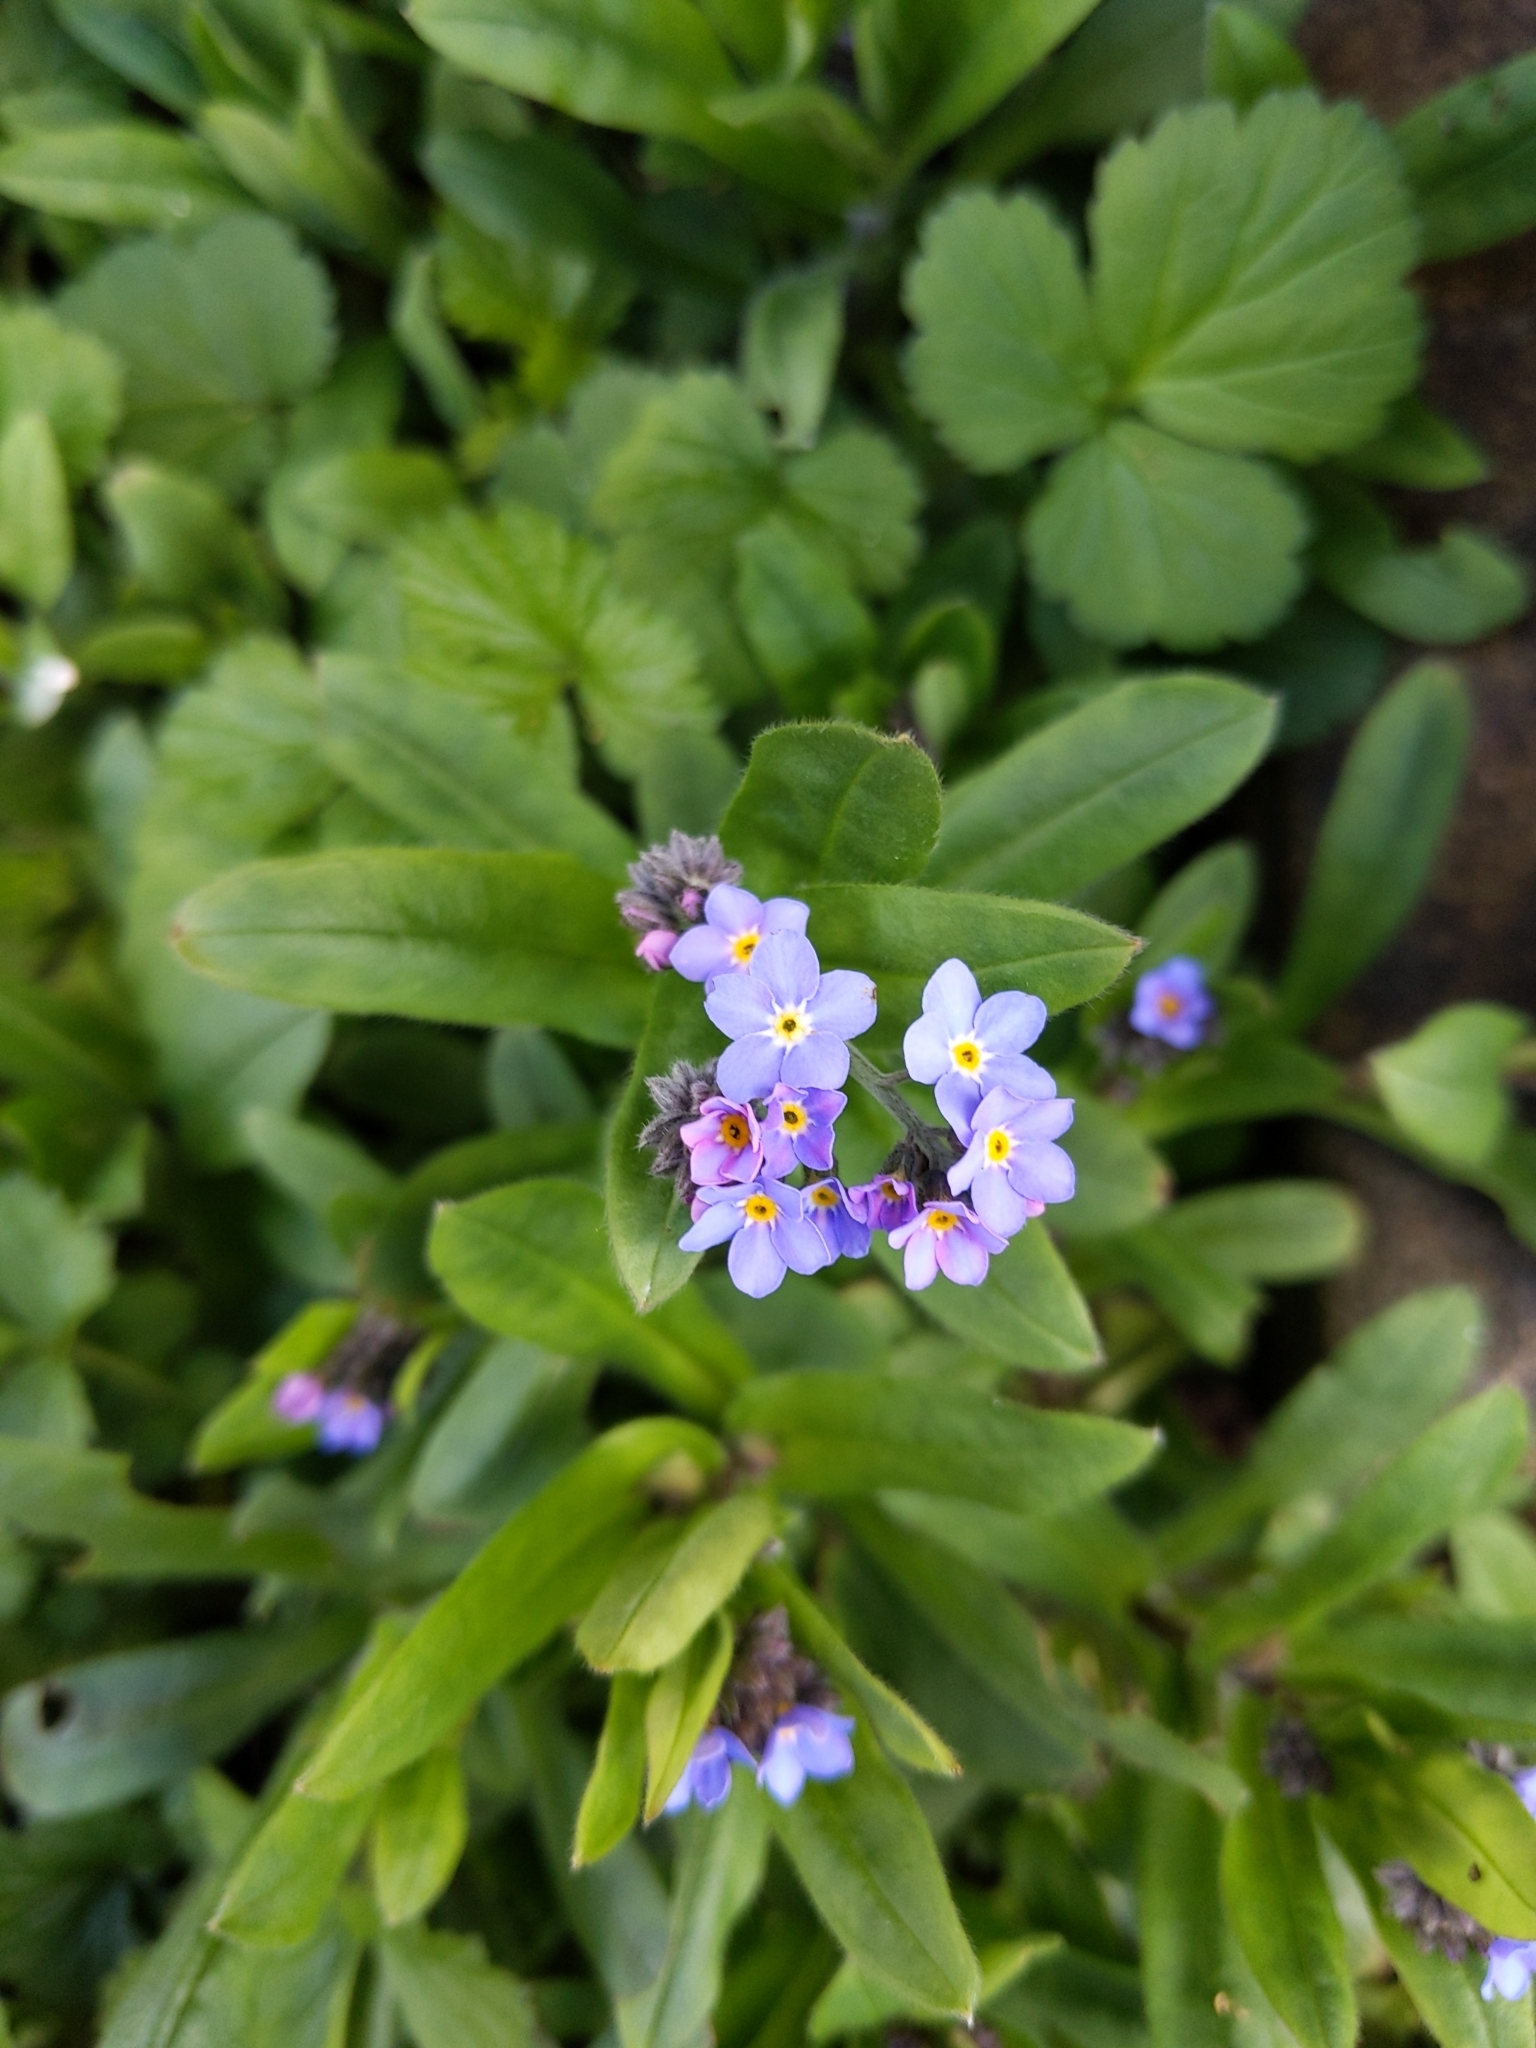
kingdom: Plantae
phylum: Tracheophyta
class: Magnoliopsida
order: Boraginales
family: Boraginaceae
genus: Myosotis
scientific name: Myosotis sylvatica
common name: Wood forget-me-not
